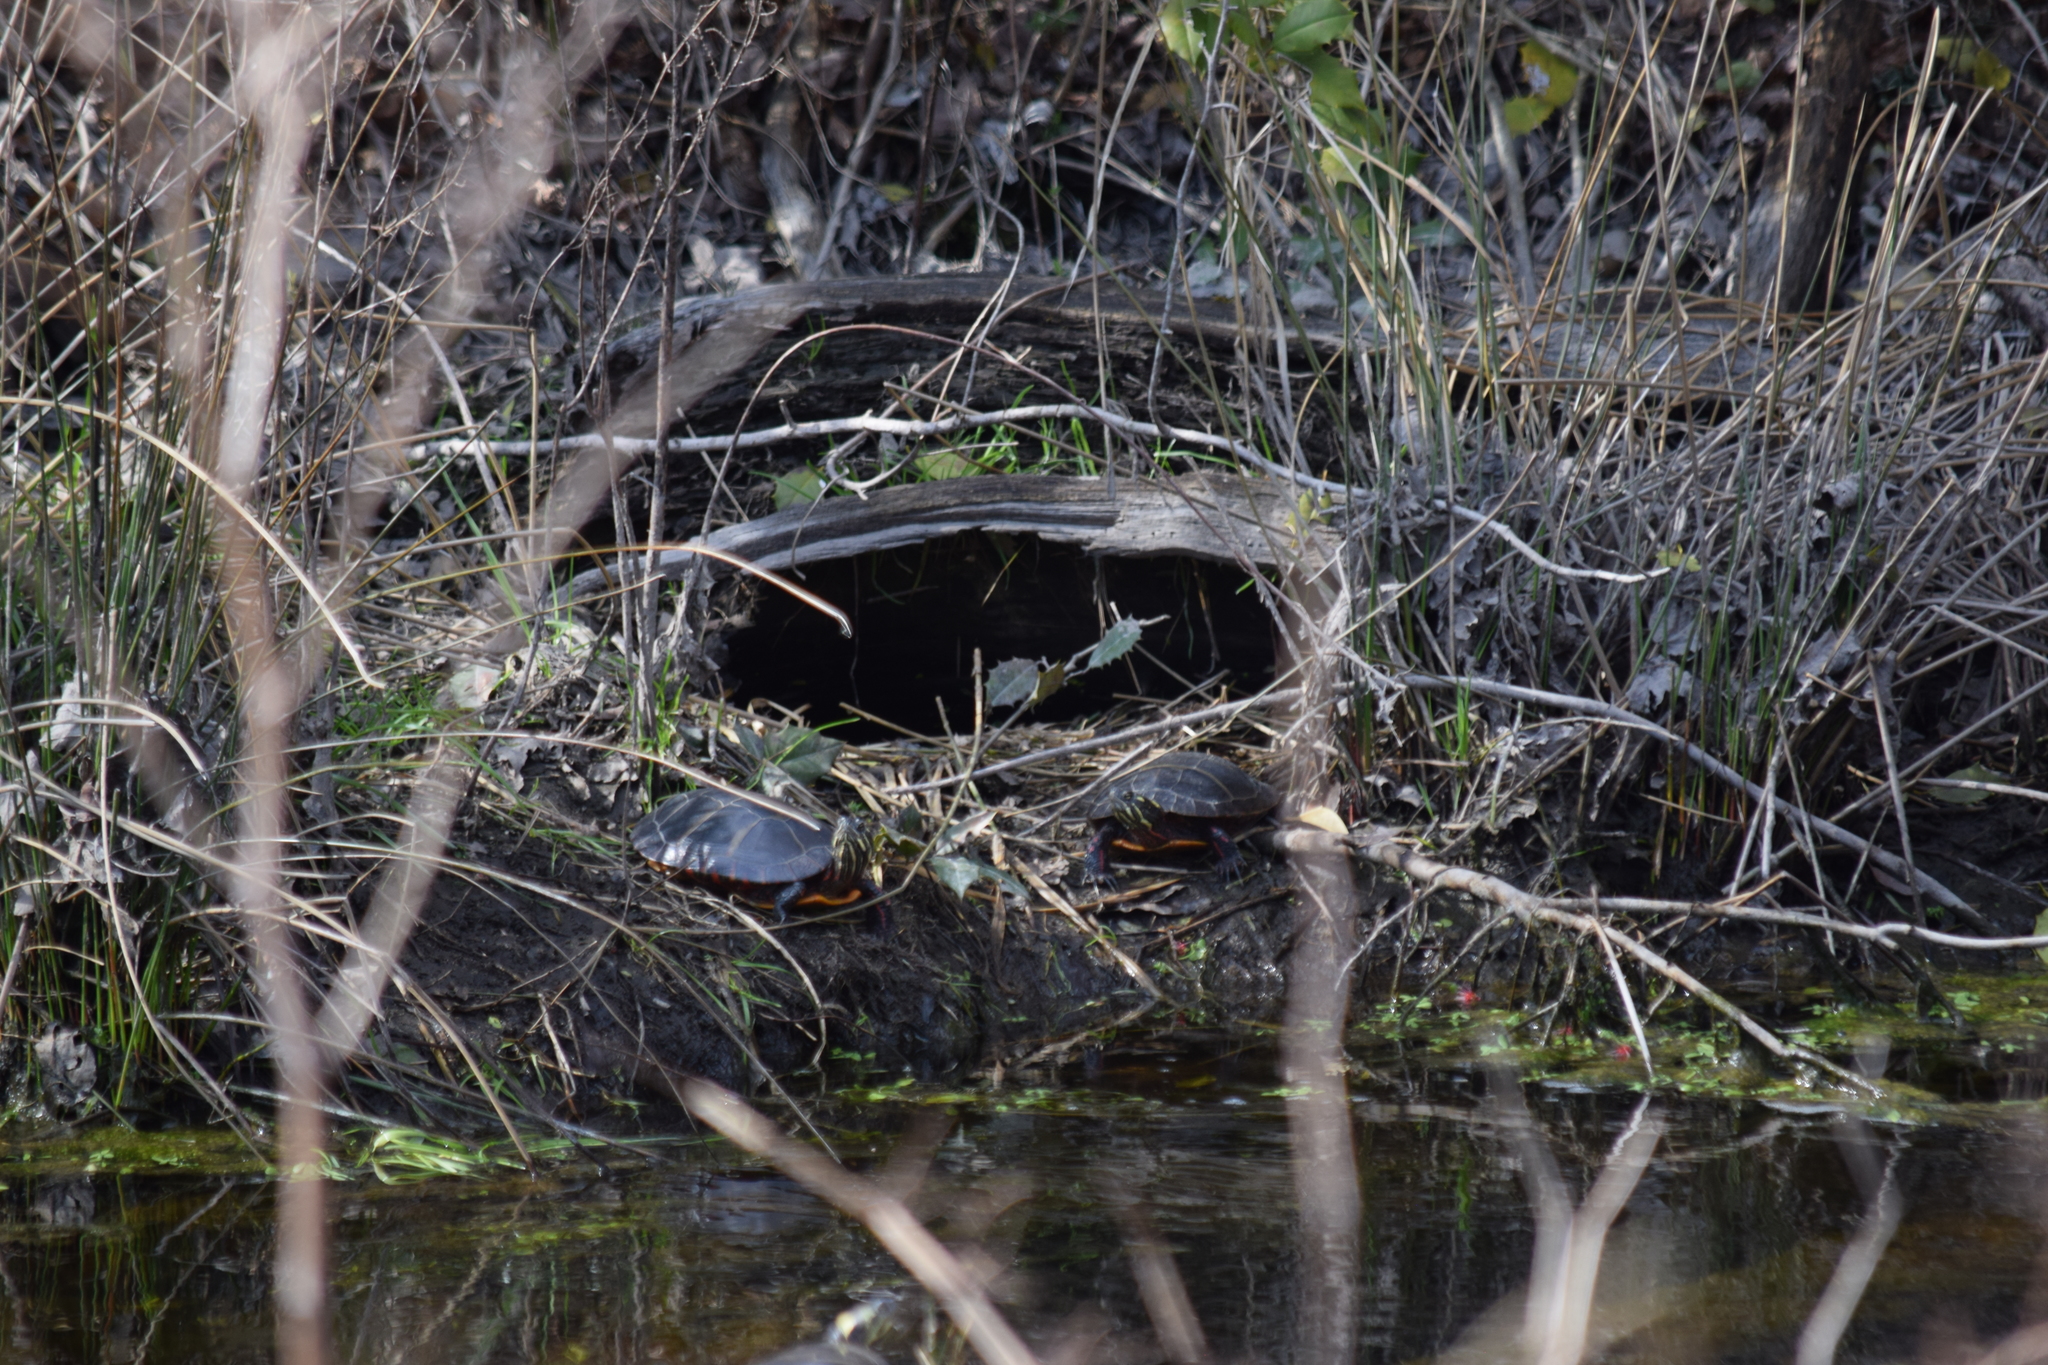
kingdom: Animalia
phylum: Chordata
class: Testudines
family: Emydidae
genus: Chrysemys
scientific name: Chrysemys picta
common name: Painted turtle
